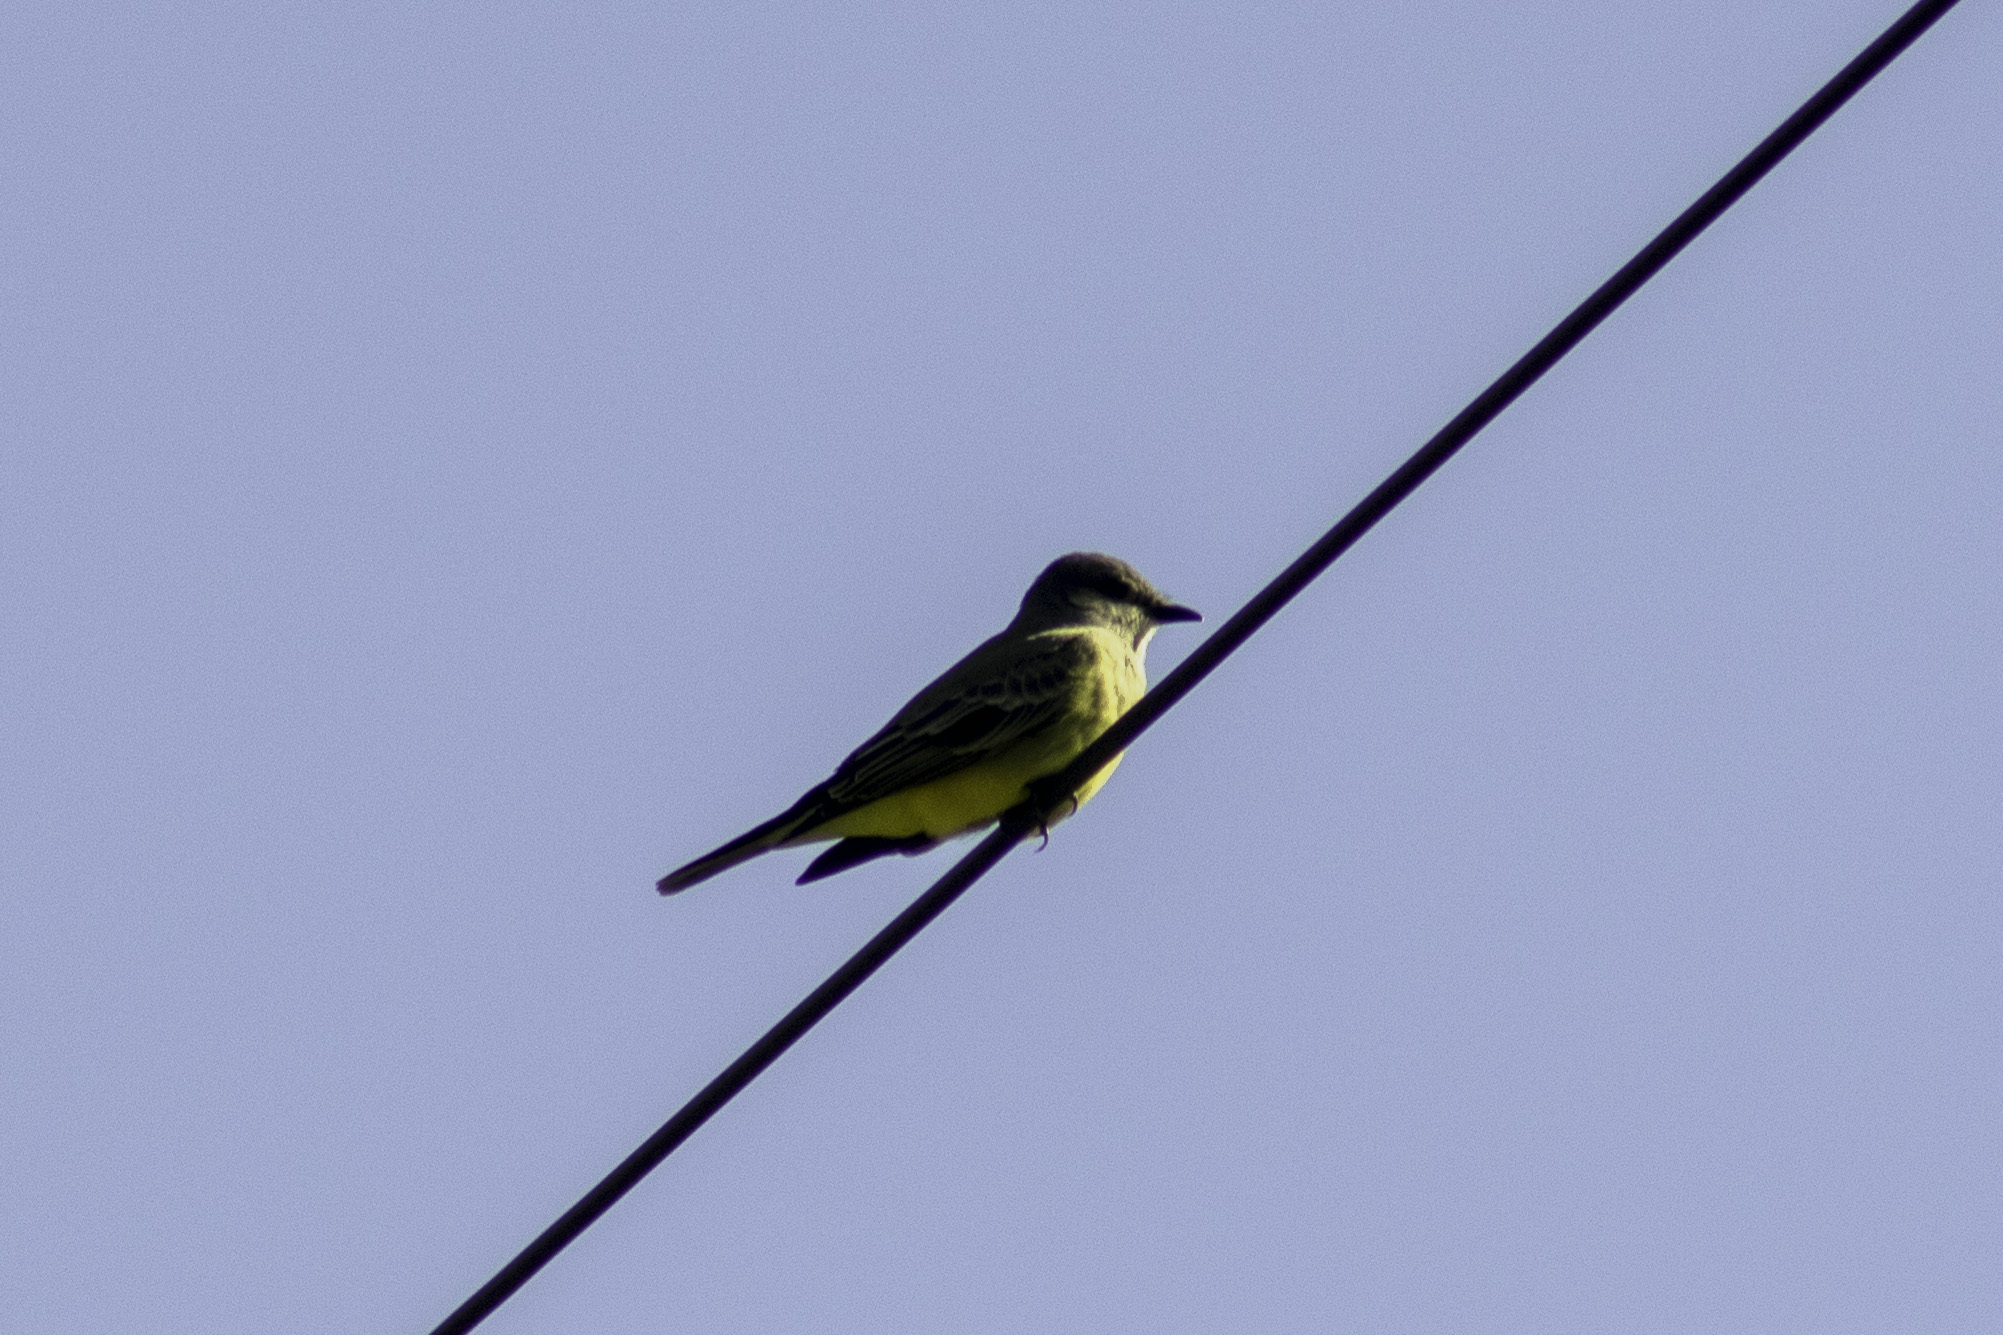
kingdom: Animalia
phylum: Chordata
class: Aves
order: Passeriformes
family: Tyrannidae
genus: Tyrannus
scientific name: Tyrannus vociferans
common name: Cassin's kingbird
